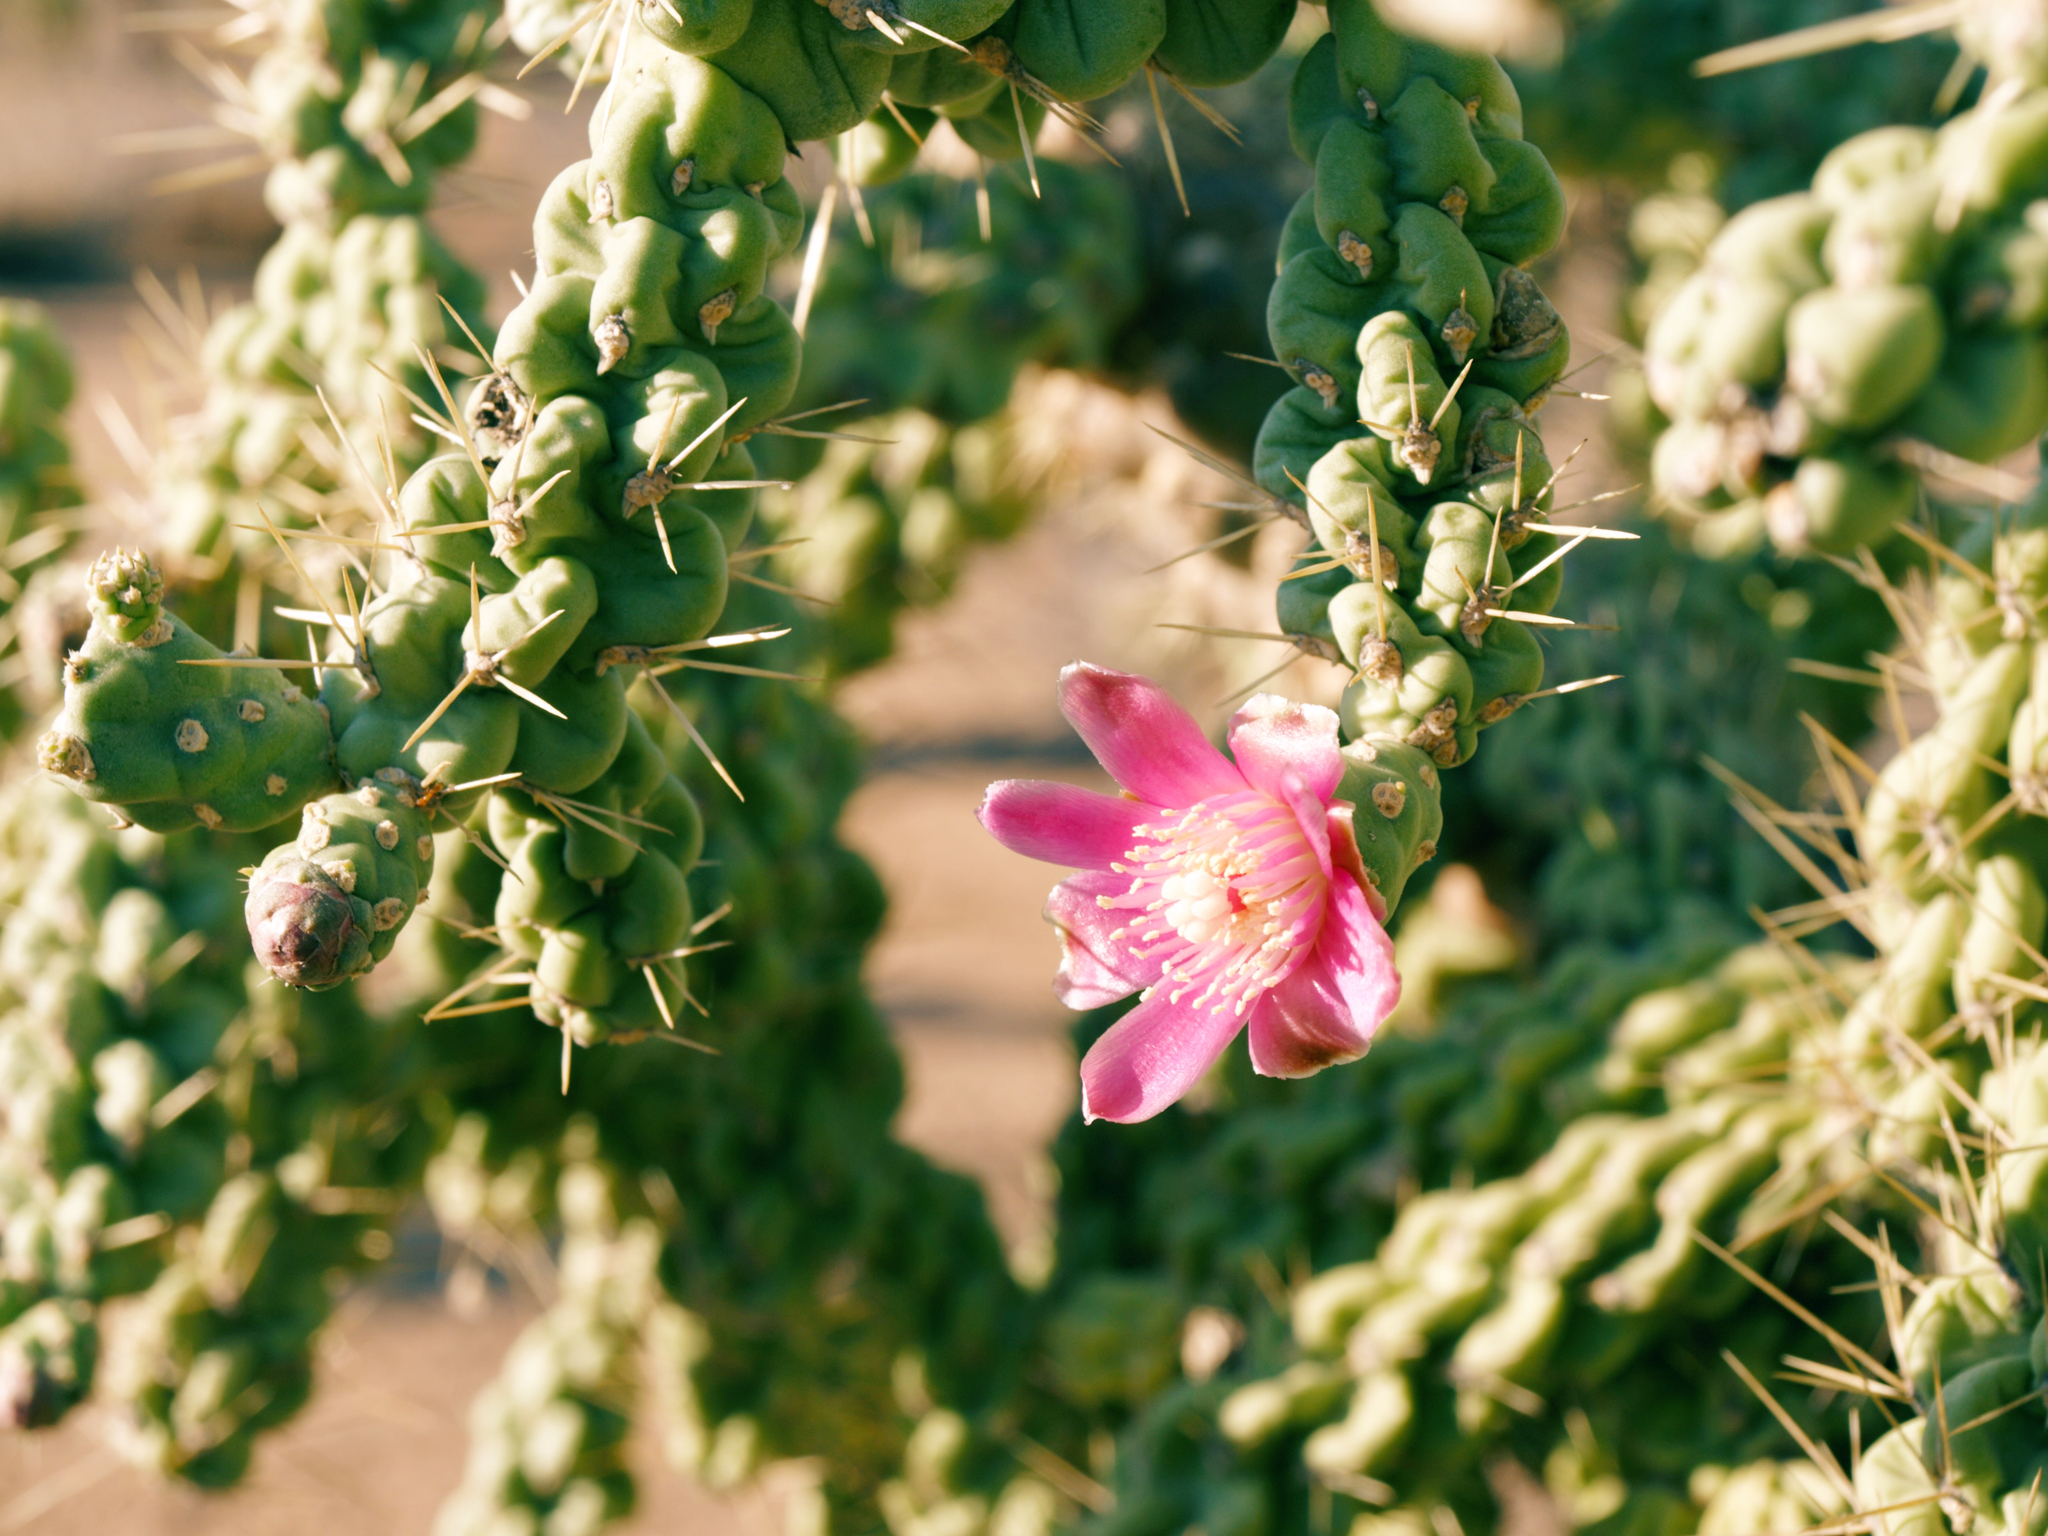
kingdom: Plantae
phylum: Tracheophyta
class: Magnoliopsida
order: Caryophyllales
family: Cactaceae
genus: Cylindropuntia
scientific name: Cylindropuntia fulgida
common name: Jumping cholla
